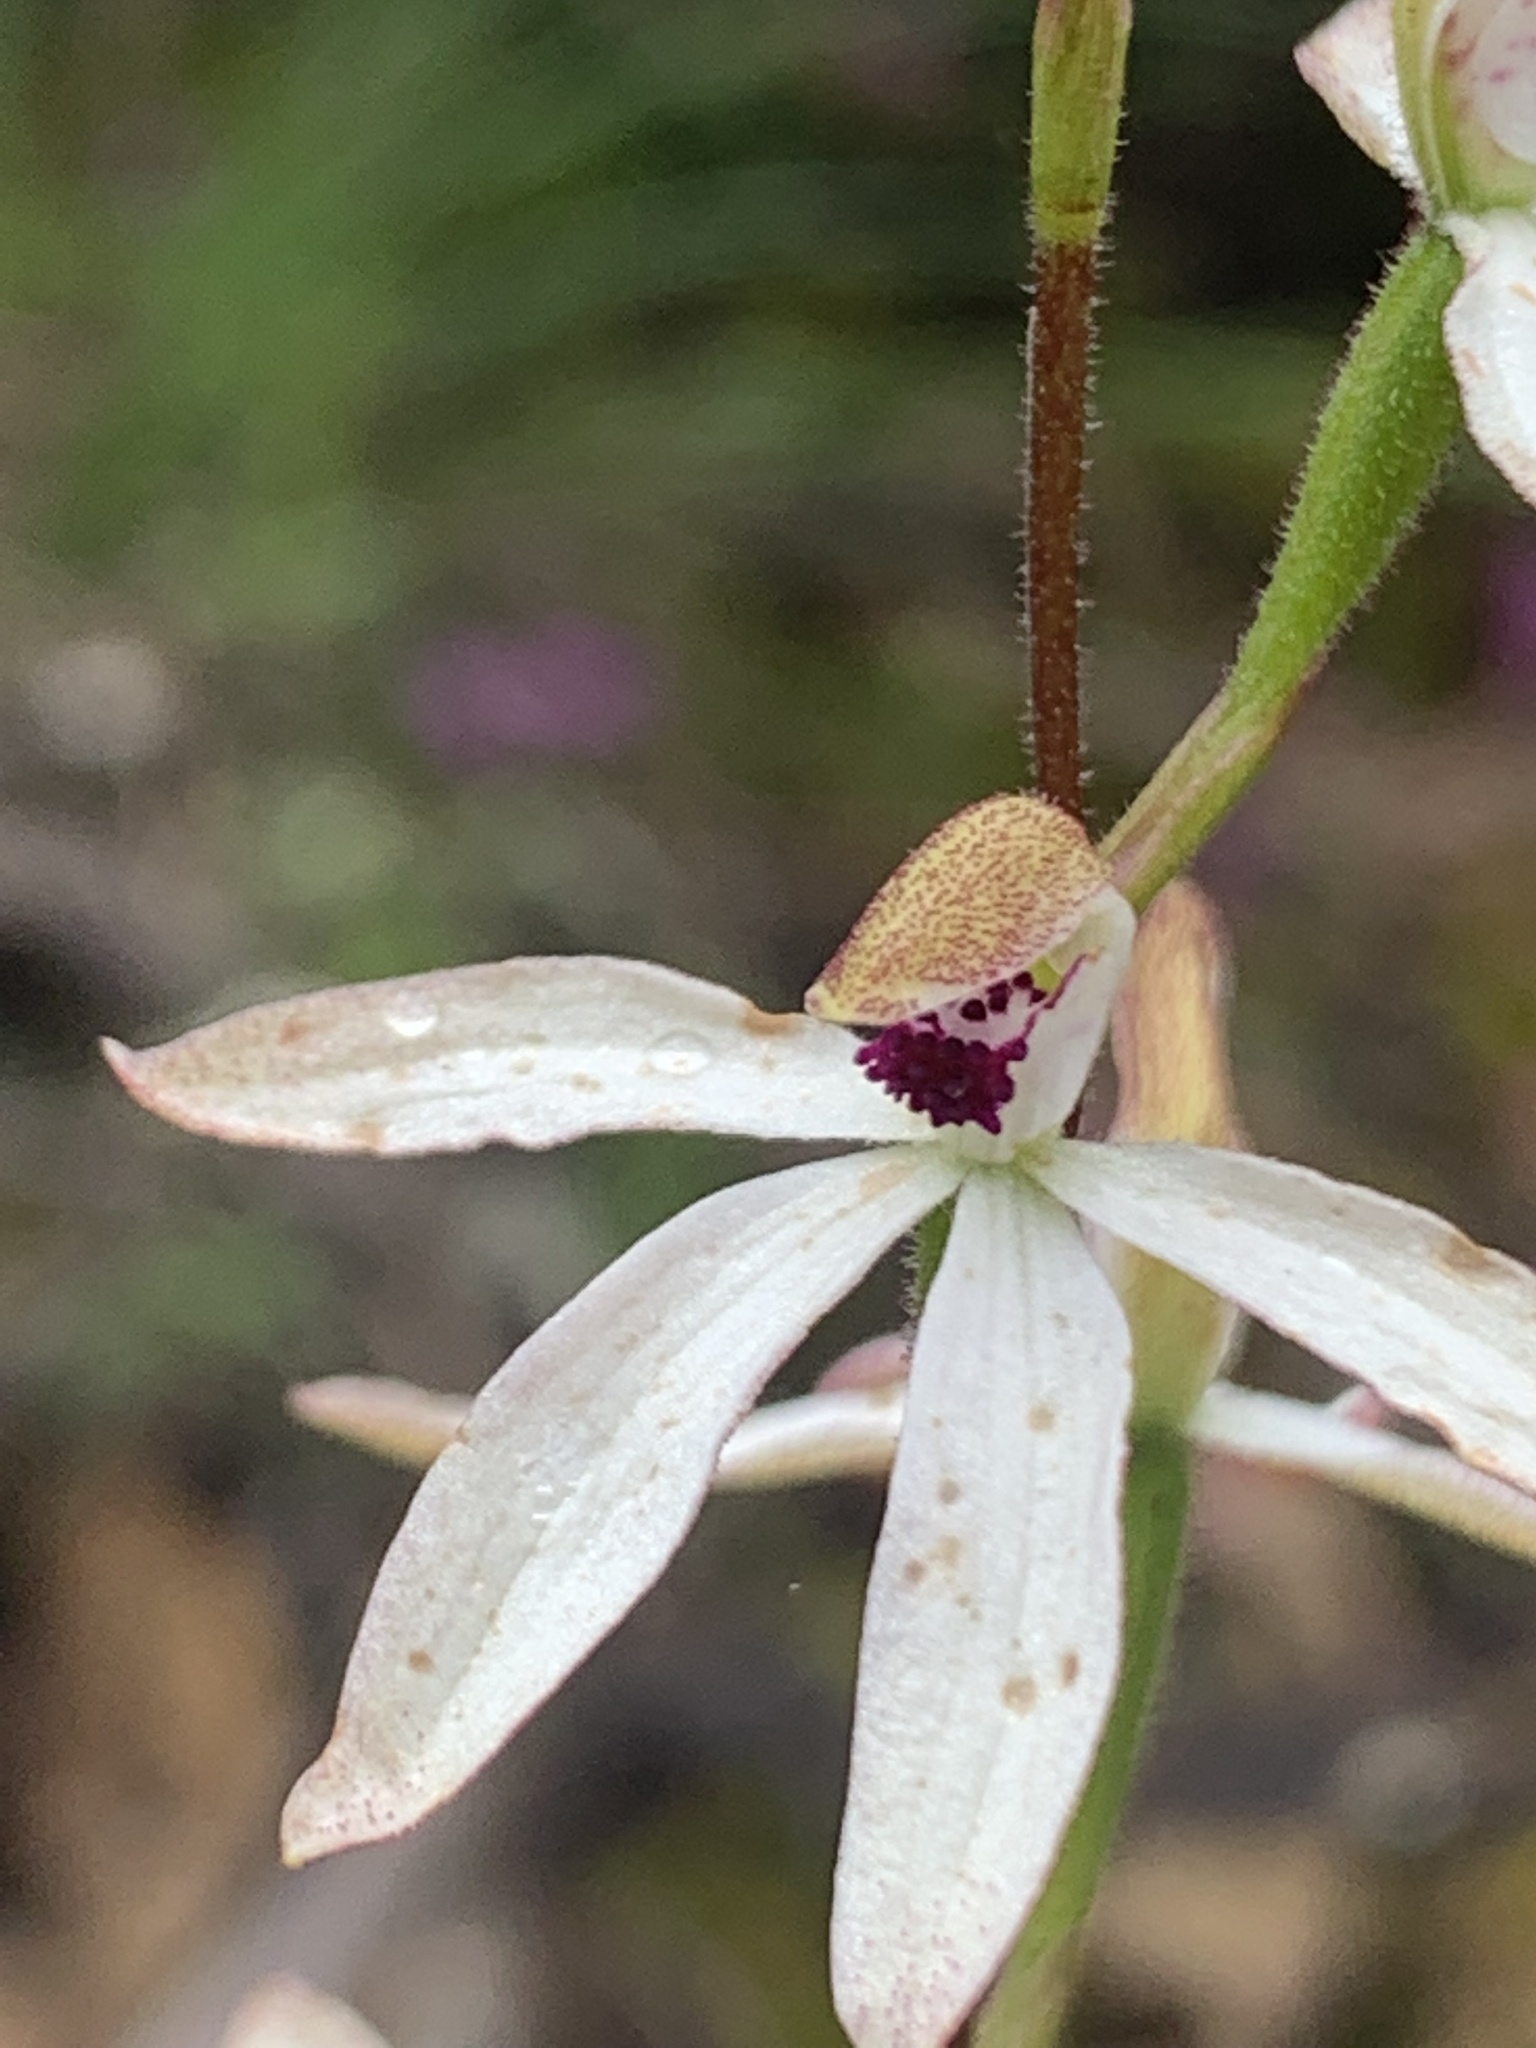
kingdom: Plantae
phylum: Tracheophyta
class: Liliopsida
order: Asparagales
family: Orchidaceae
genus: Caladenia
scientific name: Caladenia cucullata
